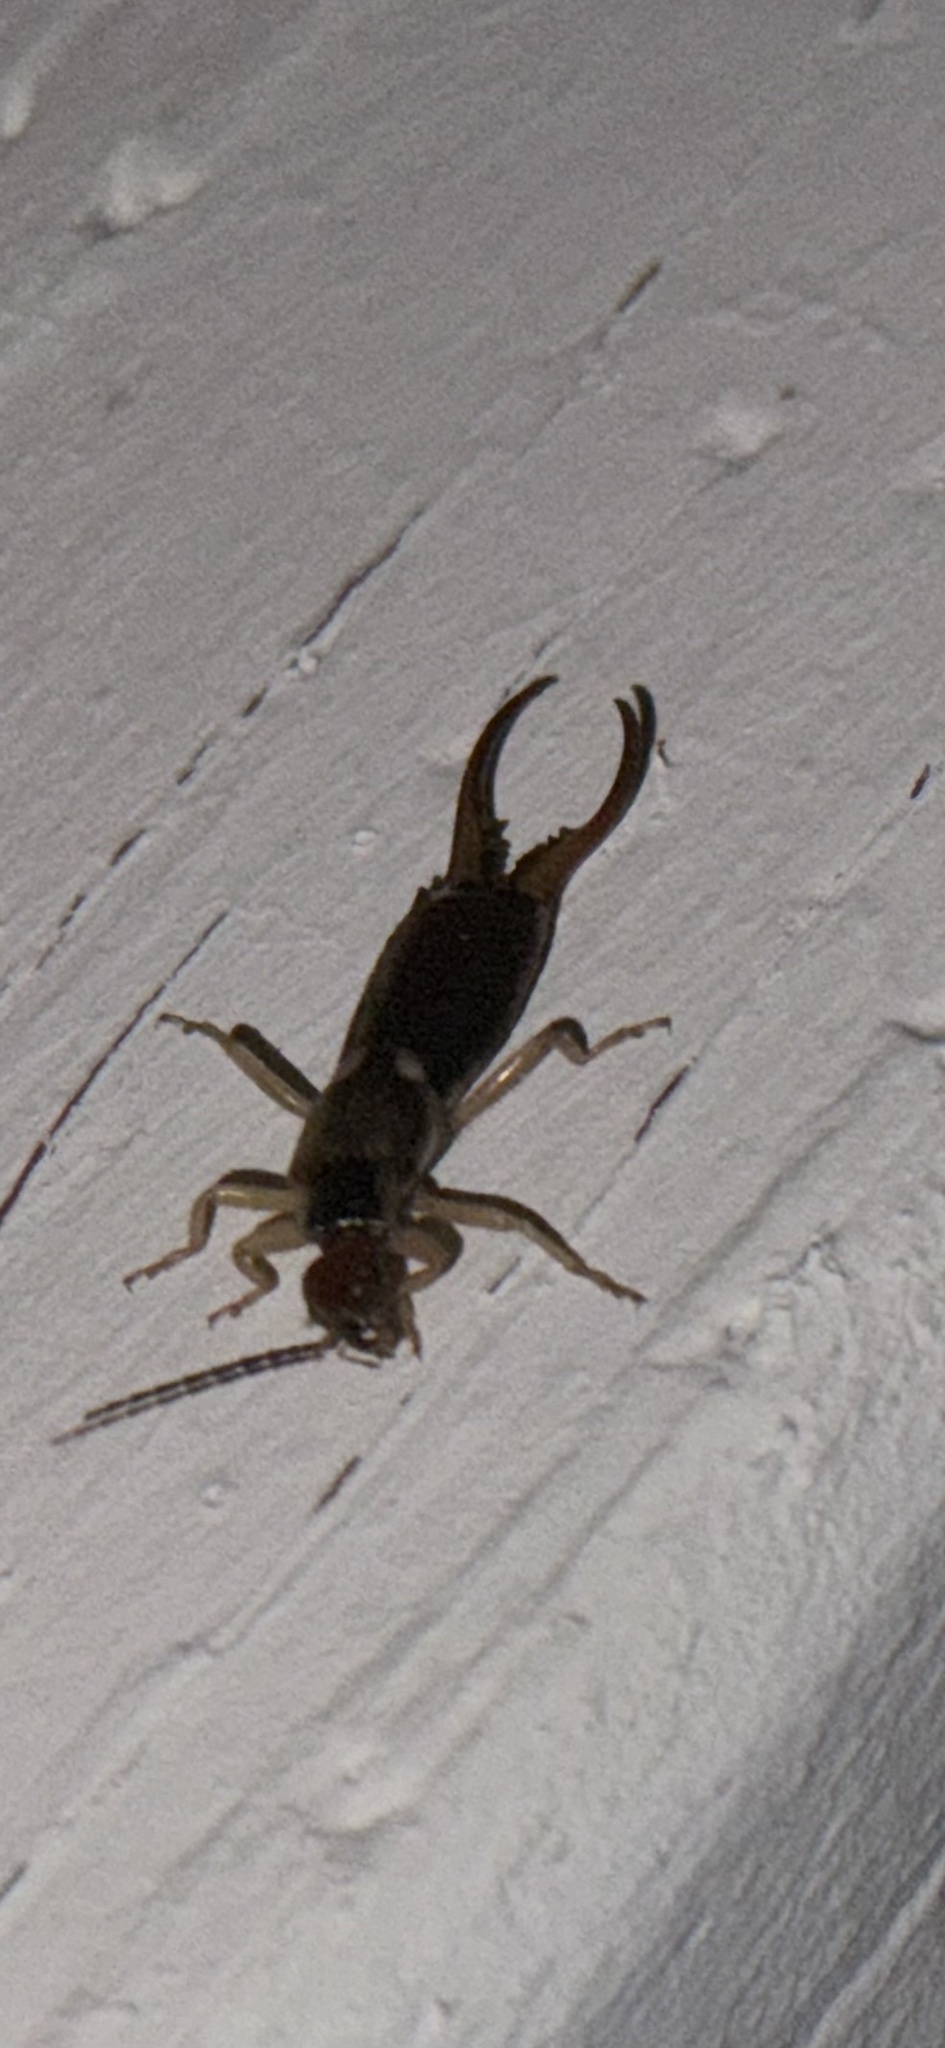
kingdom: Animalia
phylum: Arthropoda
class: Insecta
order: Dermaptera
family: Forficulidae
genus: Forficula
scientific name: Forficula dentata
